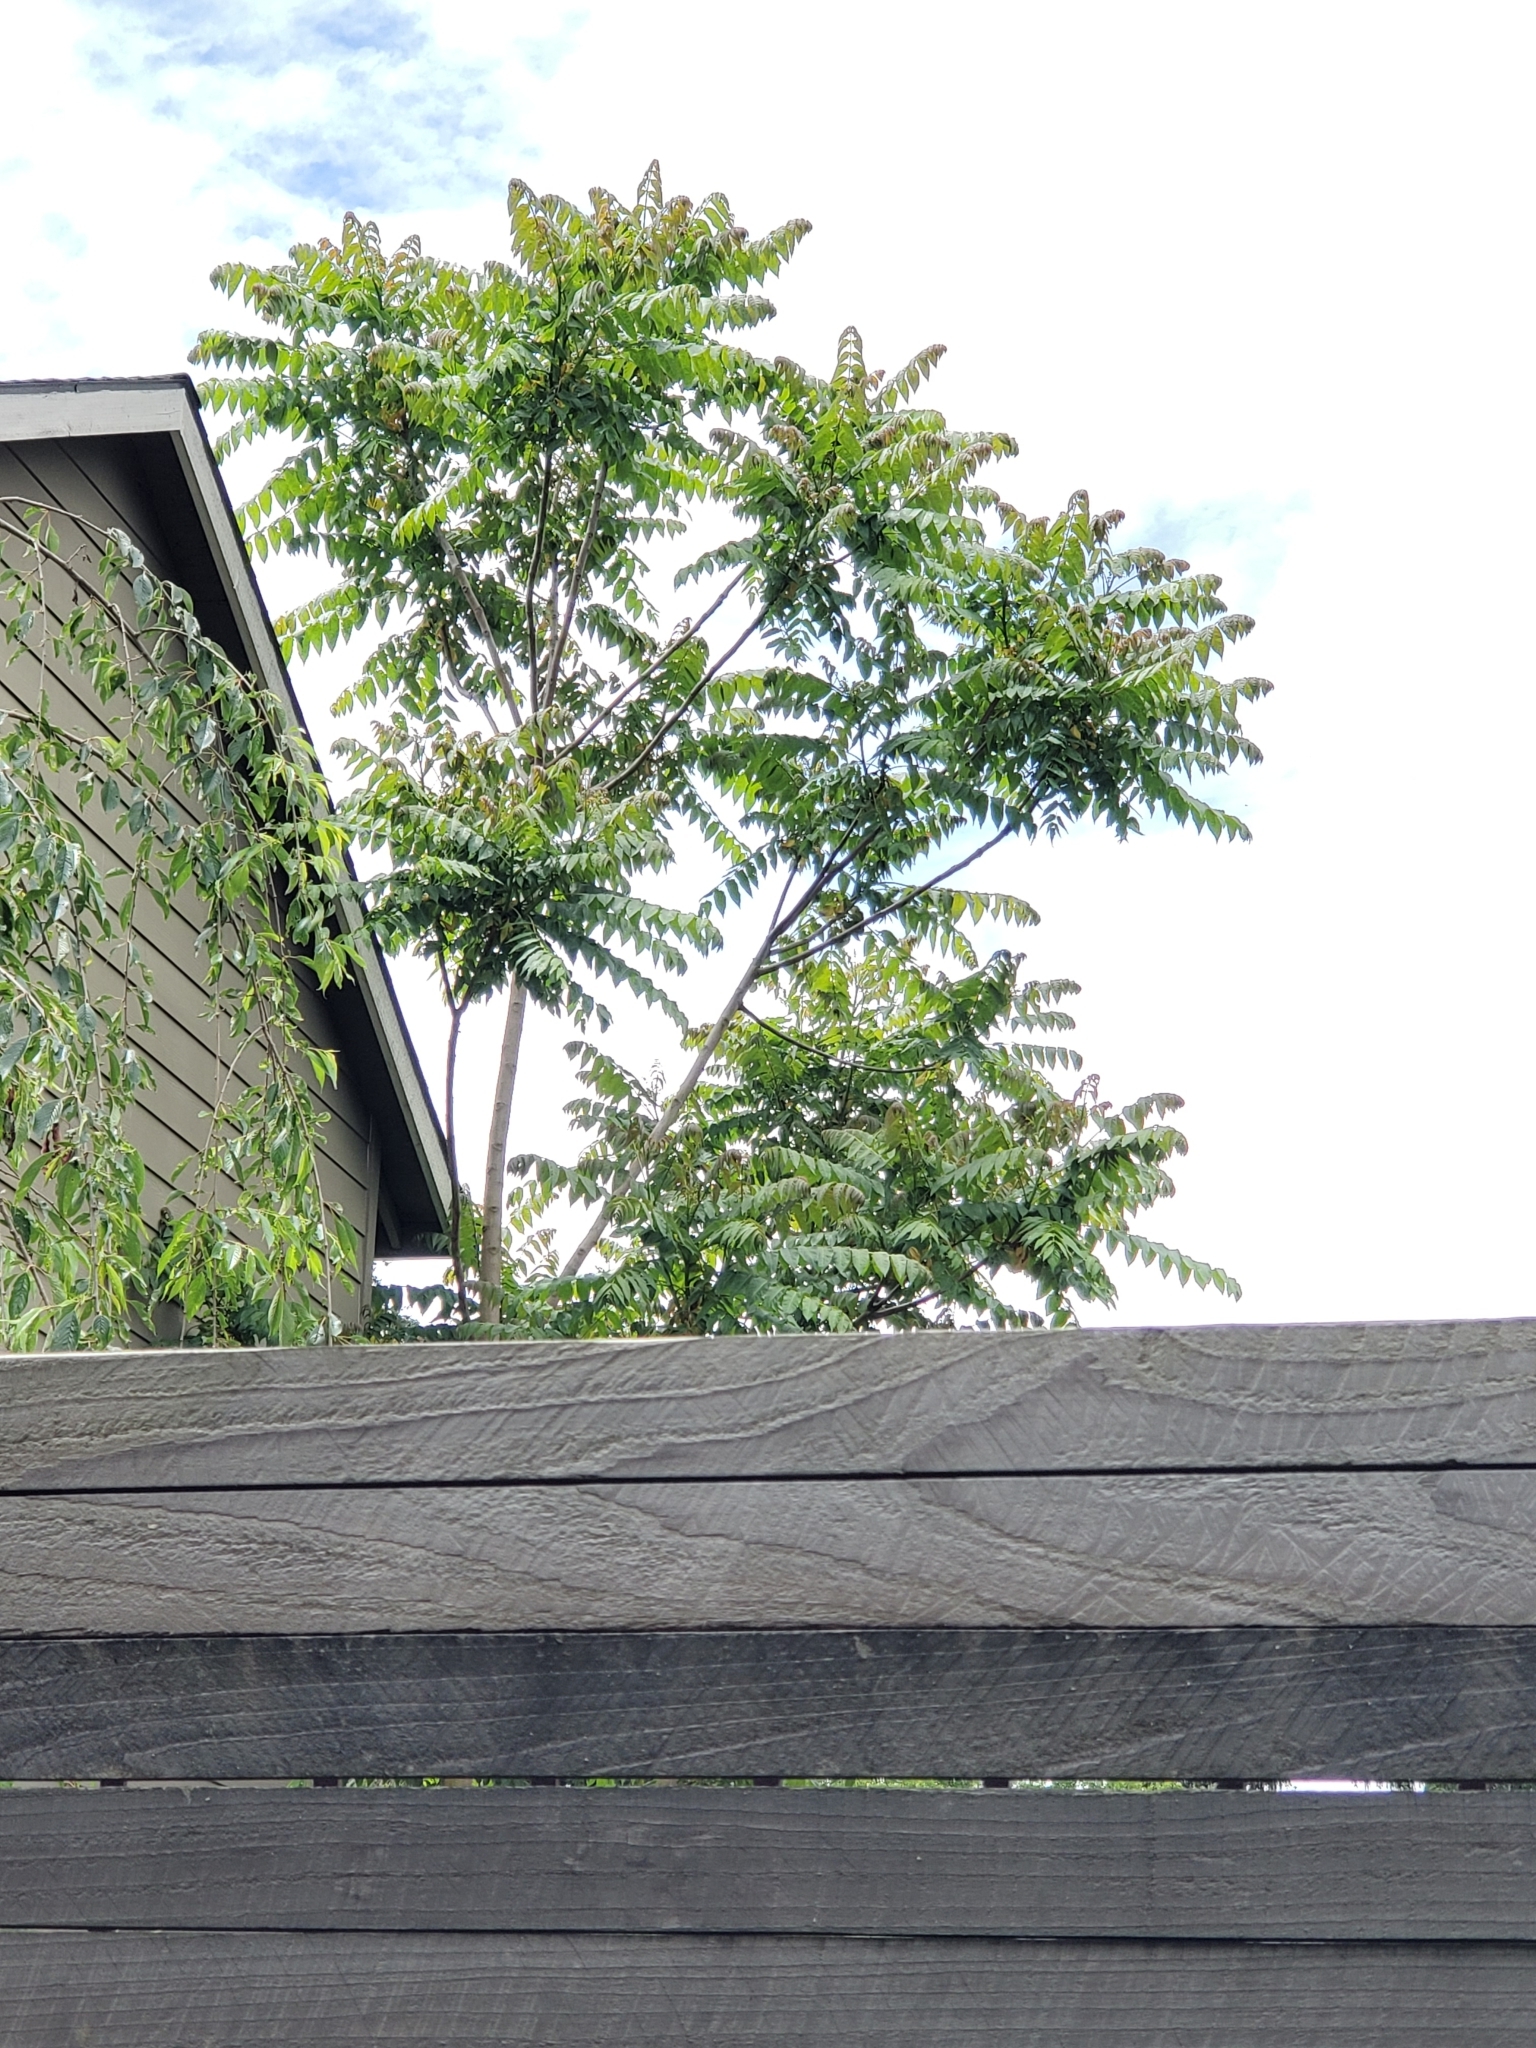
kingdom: Plantae
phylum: Tracheophyta
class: Magnoliopsida
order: Sapindales
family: Simaroubaceae
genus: Ailanthus
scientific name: Ailanthus altissima
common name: Tree-of-heaven
